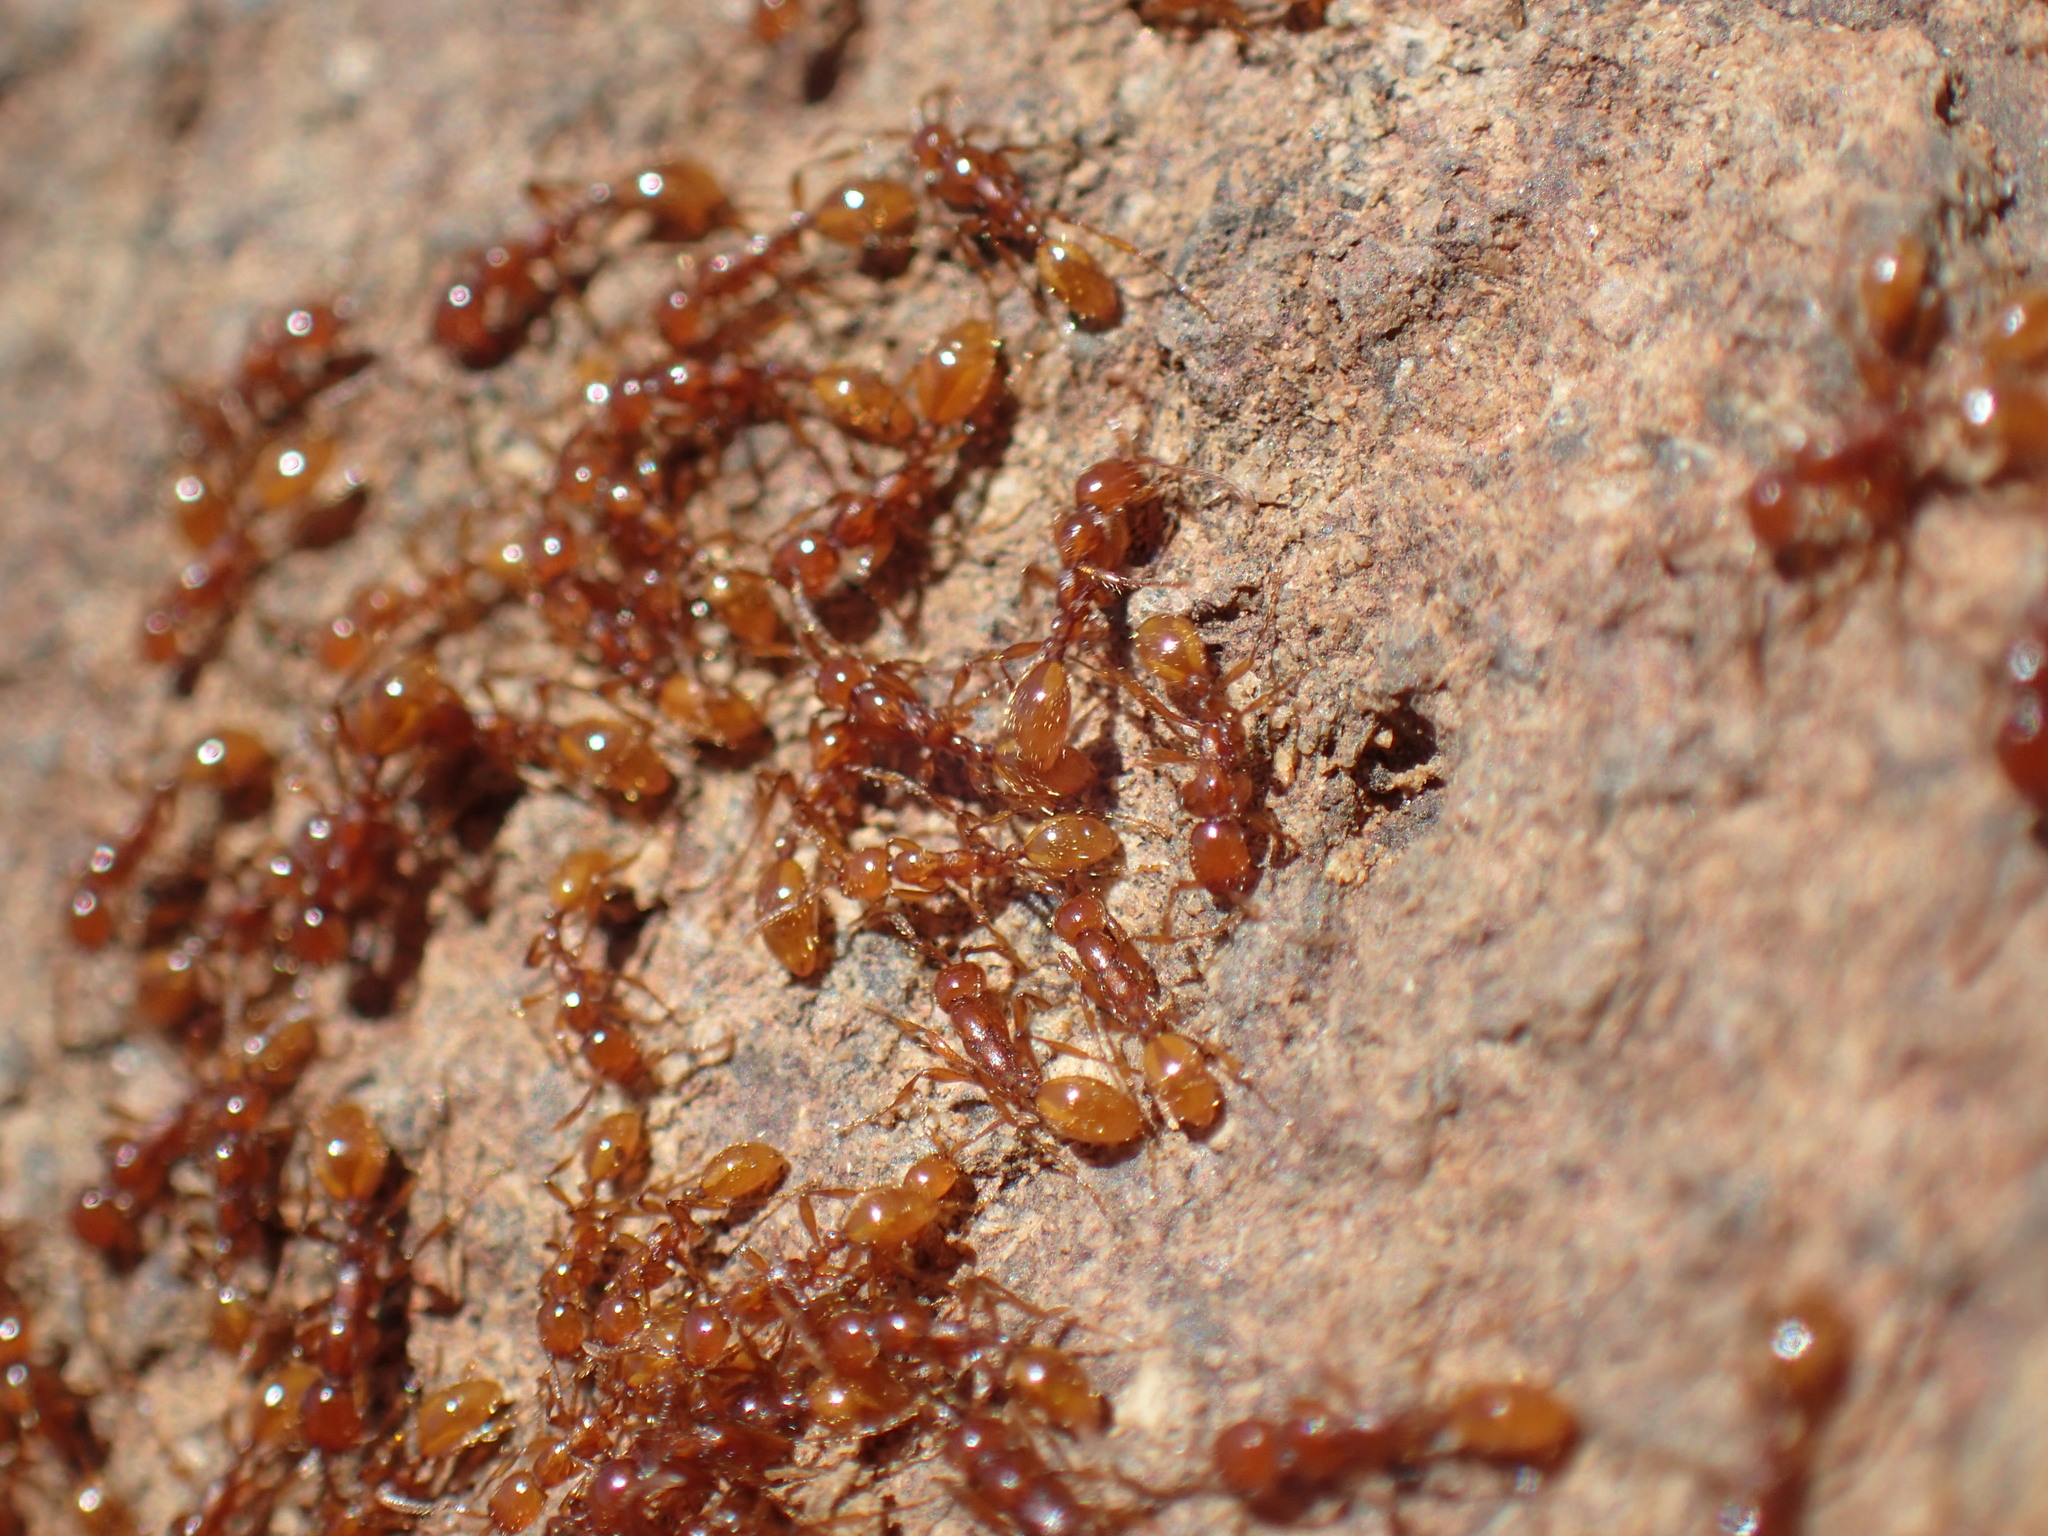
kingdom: Animalia
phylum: Arthropoda
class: Insecta
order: Hymenoptera
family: Formicidae
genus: Aenictus
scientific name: Aenictus rotundatus
